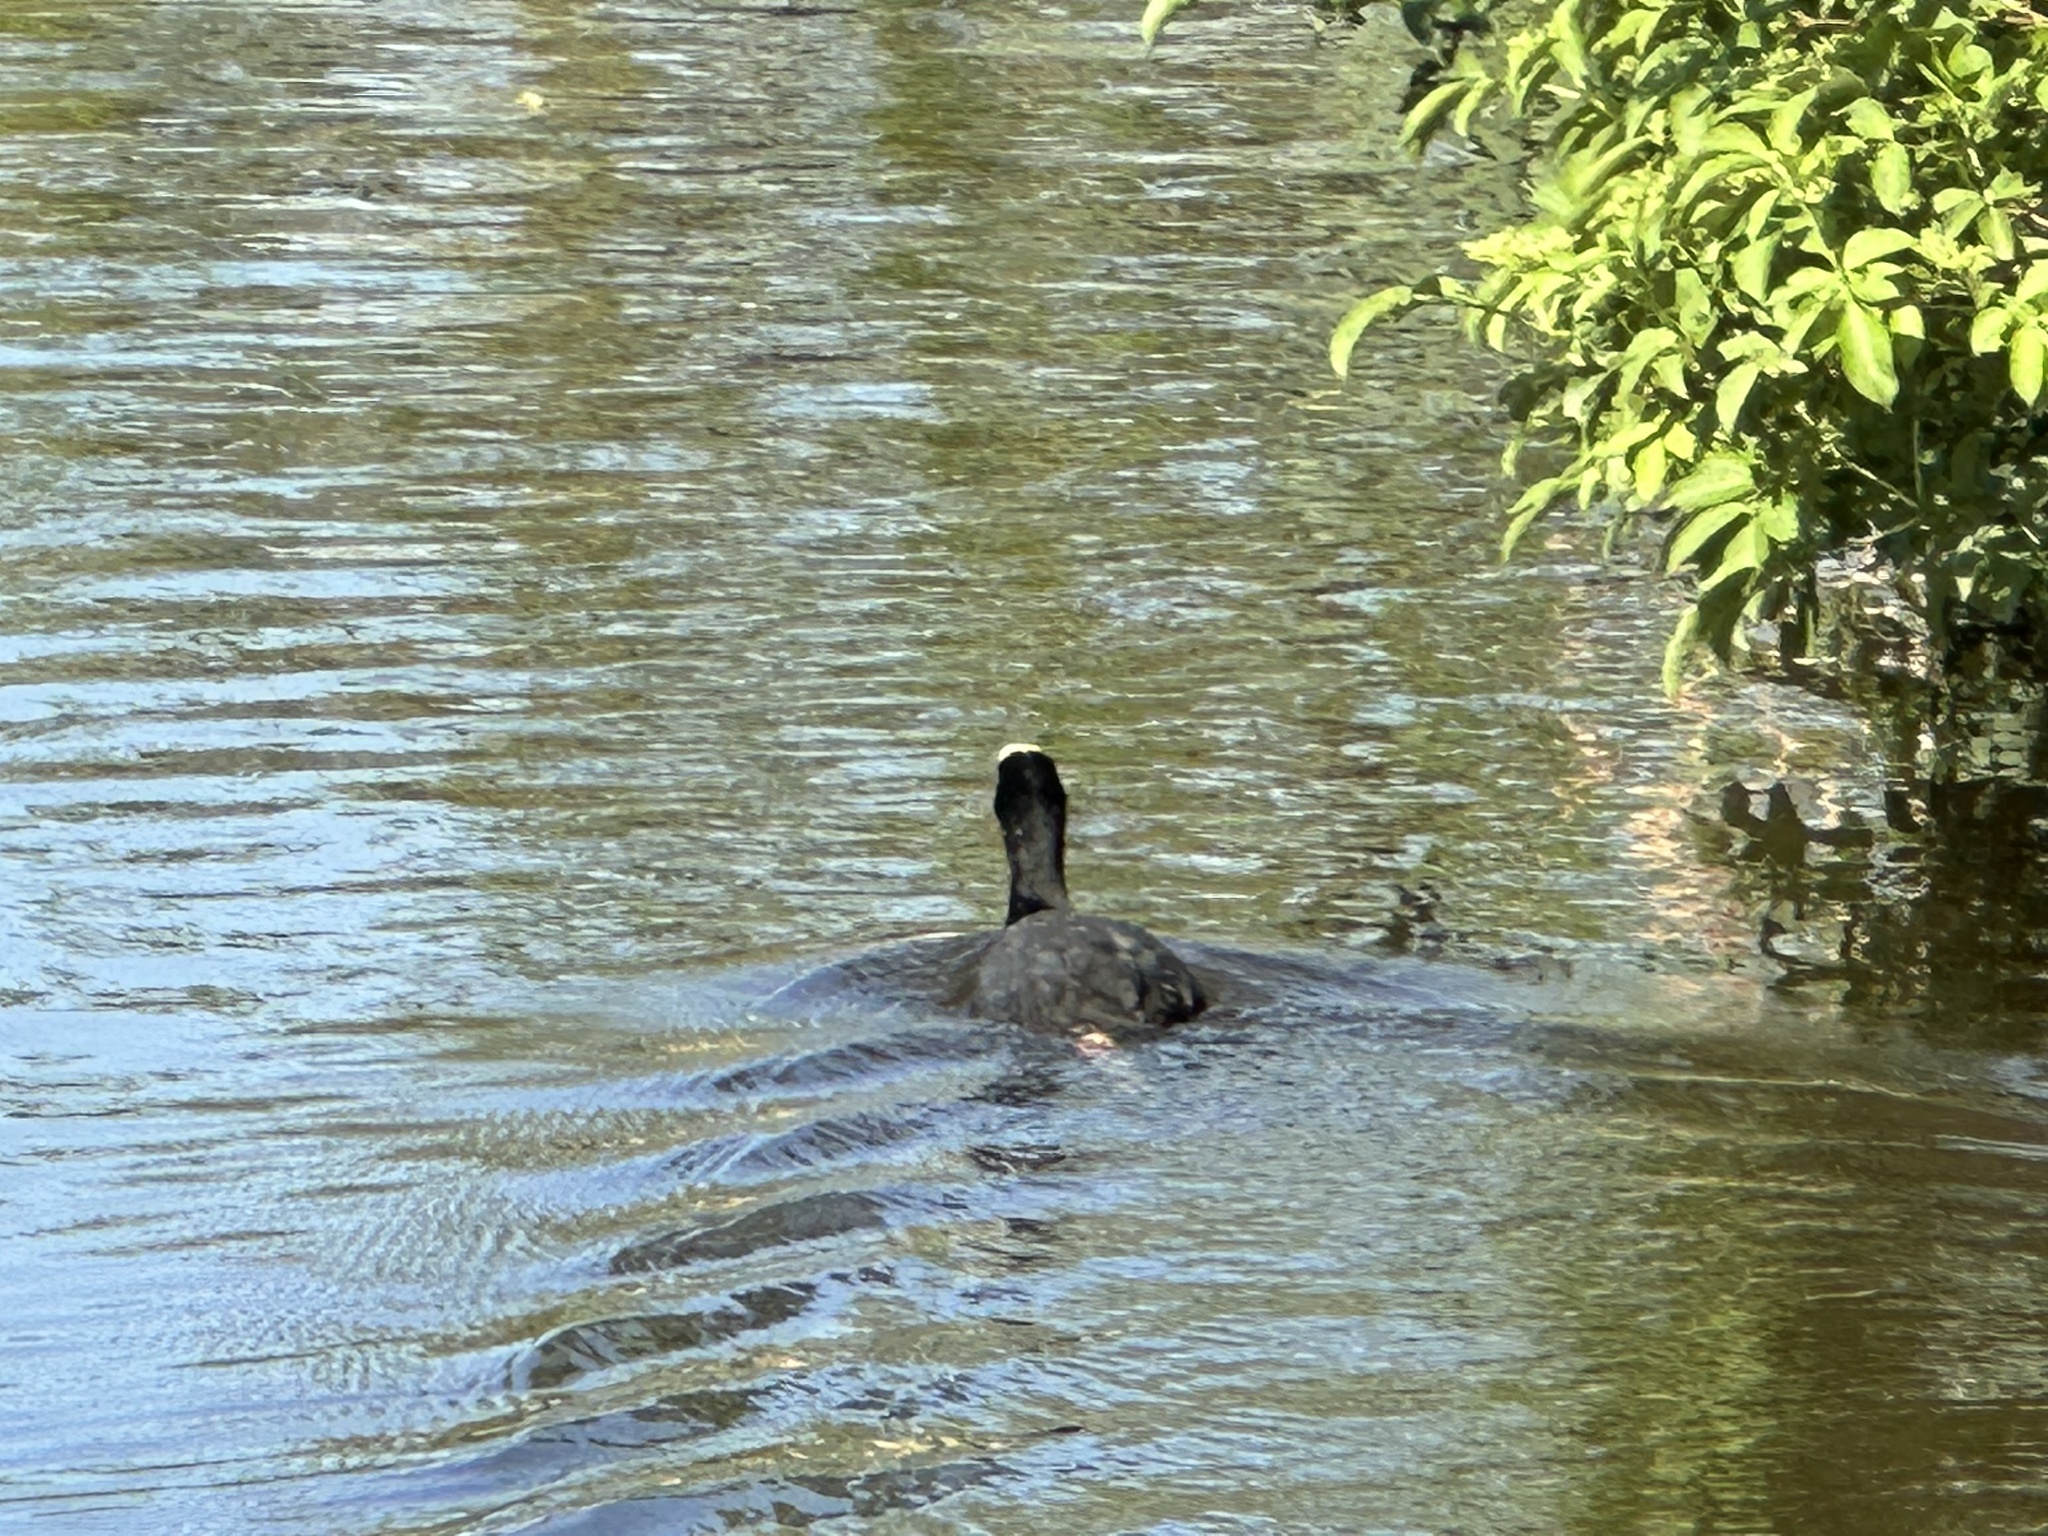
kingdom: Animalia
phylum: Chordata
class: Aves
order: Gruiformes
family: Rallidae
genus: Fulica
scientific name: Fulica atra
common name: Eurasian coot
